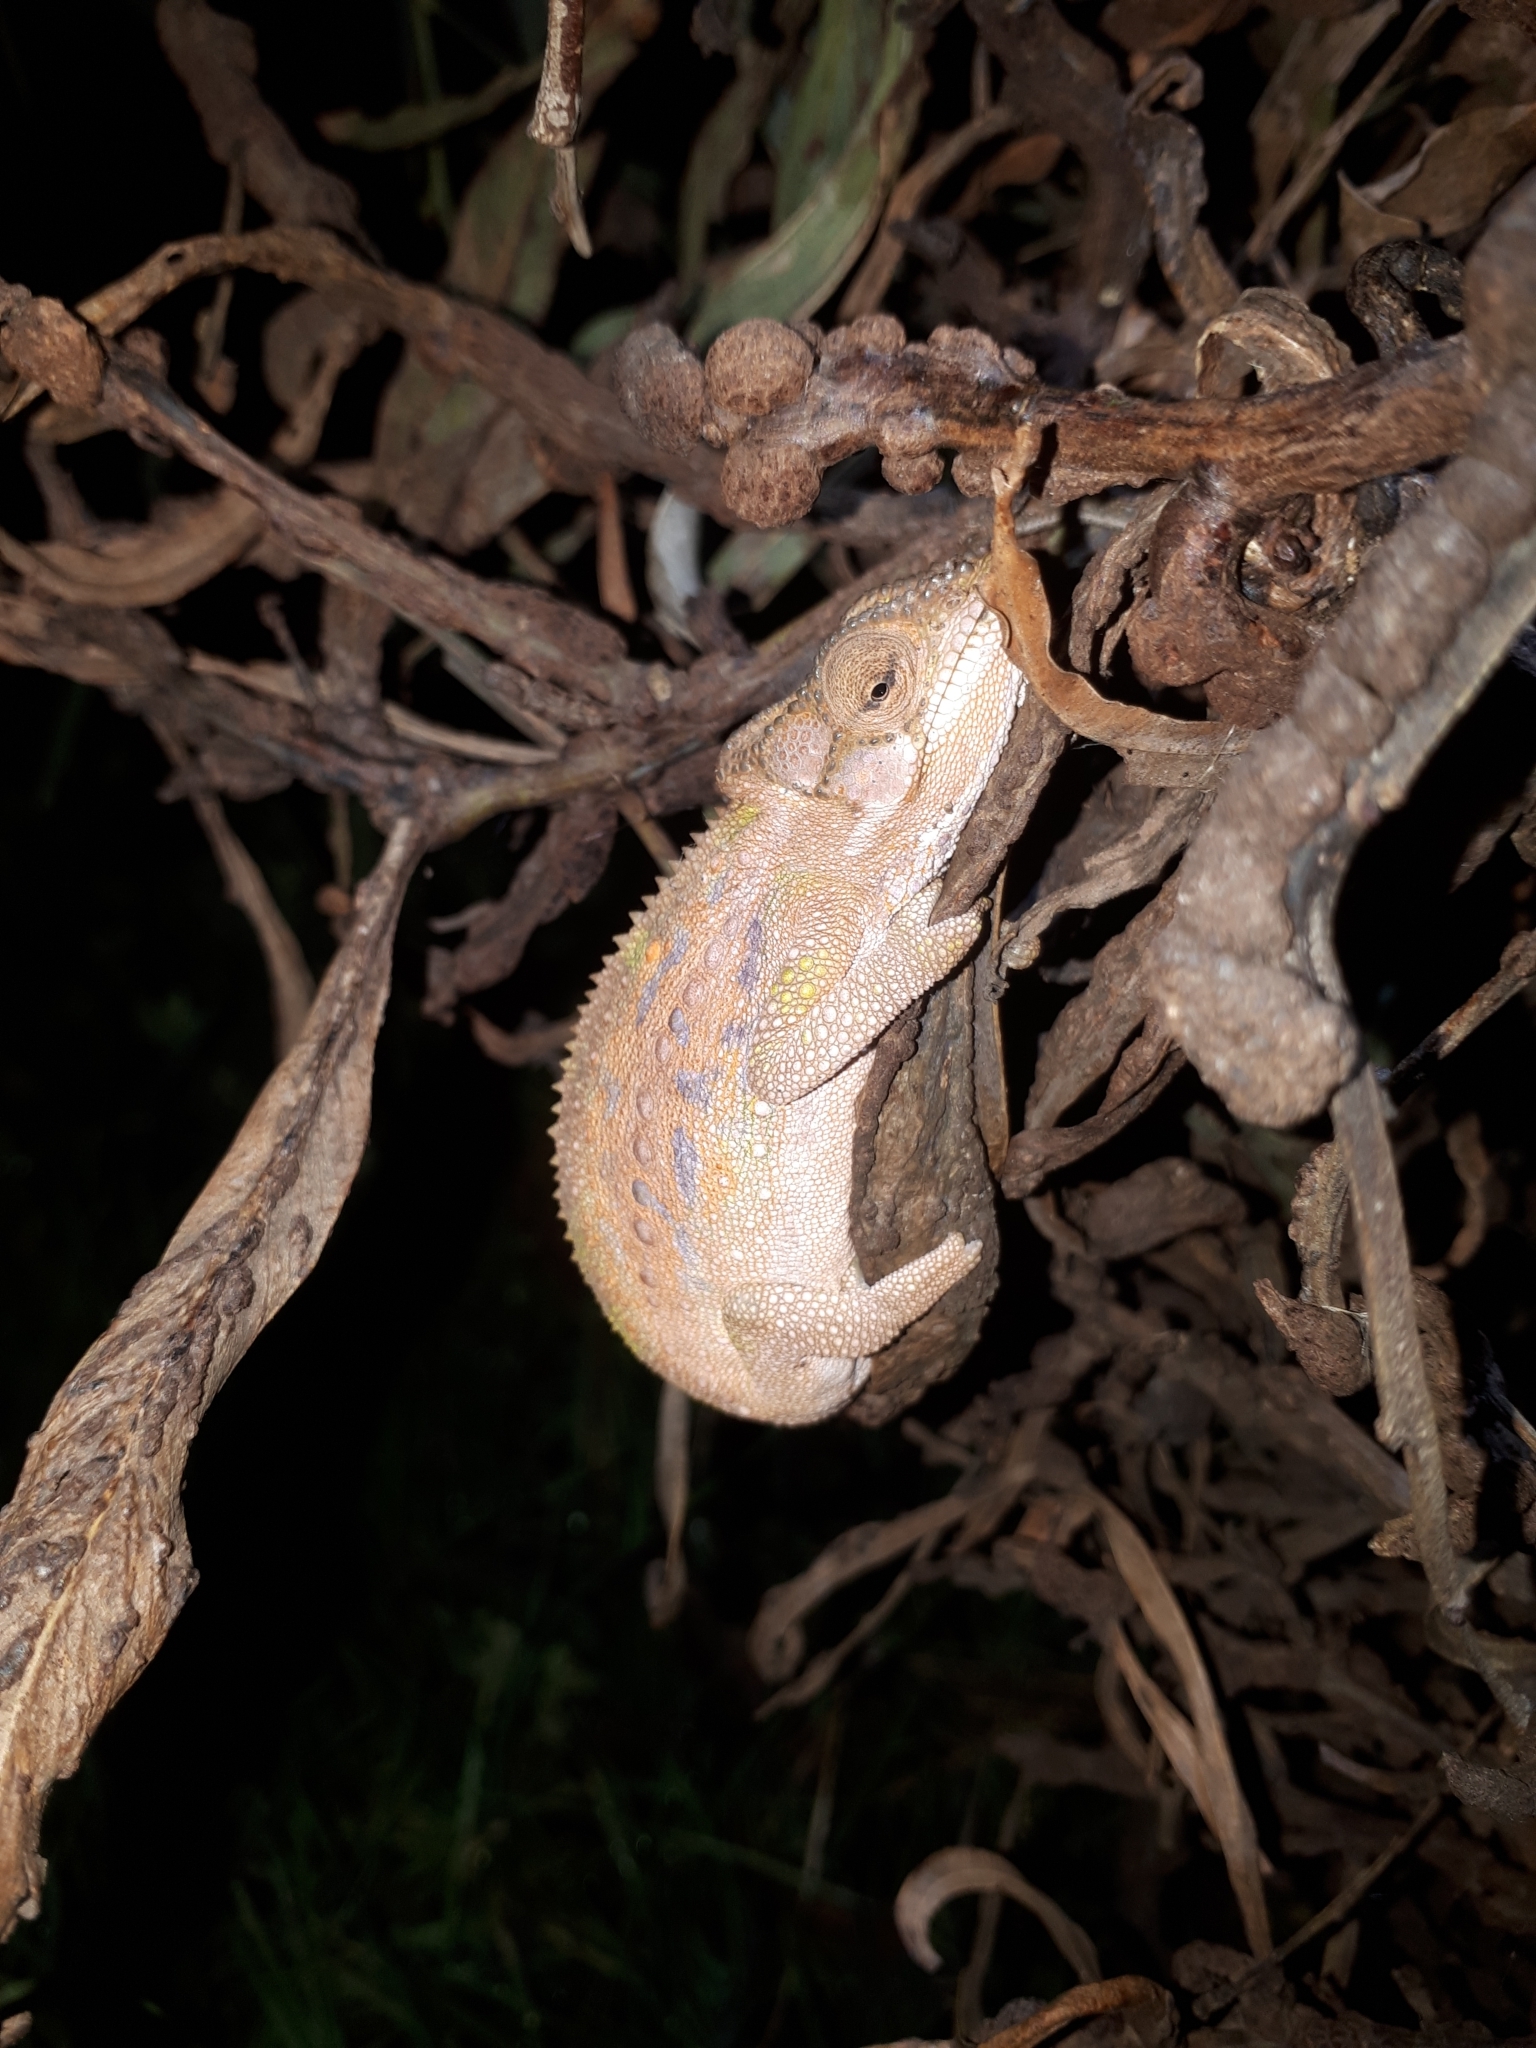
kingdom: Animalia
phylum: Chordata
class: Squamata
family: Chamaeleonidae
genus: Bradypodion
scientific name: Bradypodion pumilum
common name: Cape dwarf chameleon
